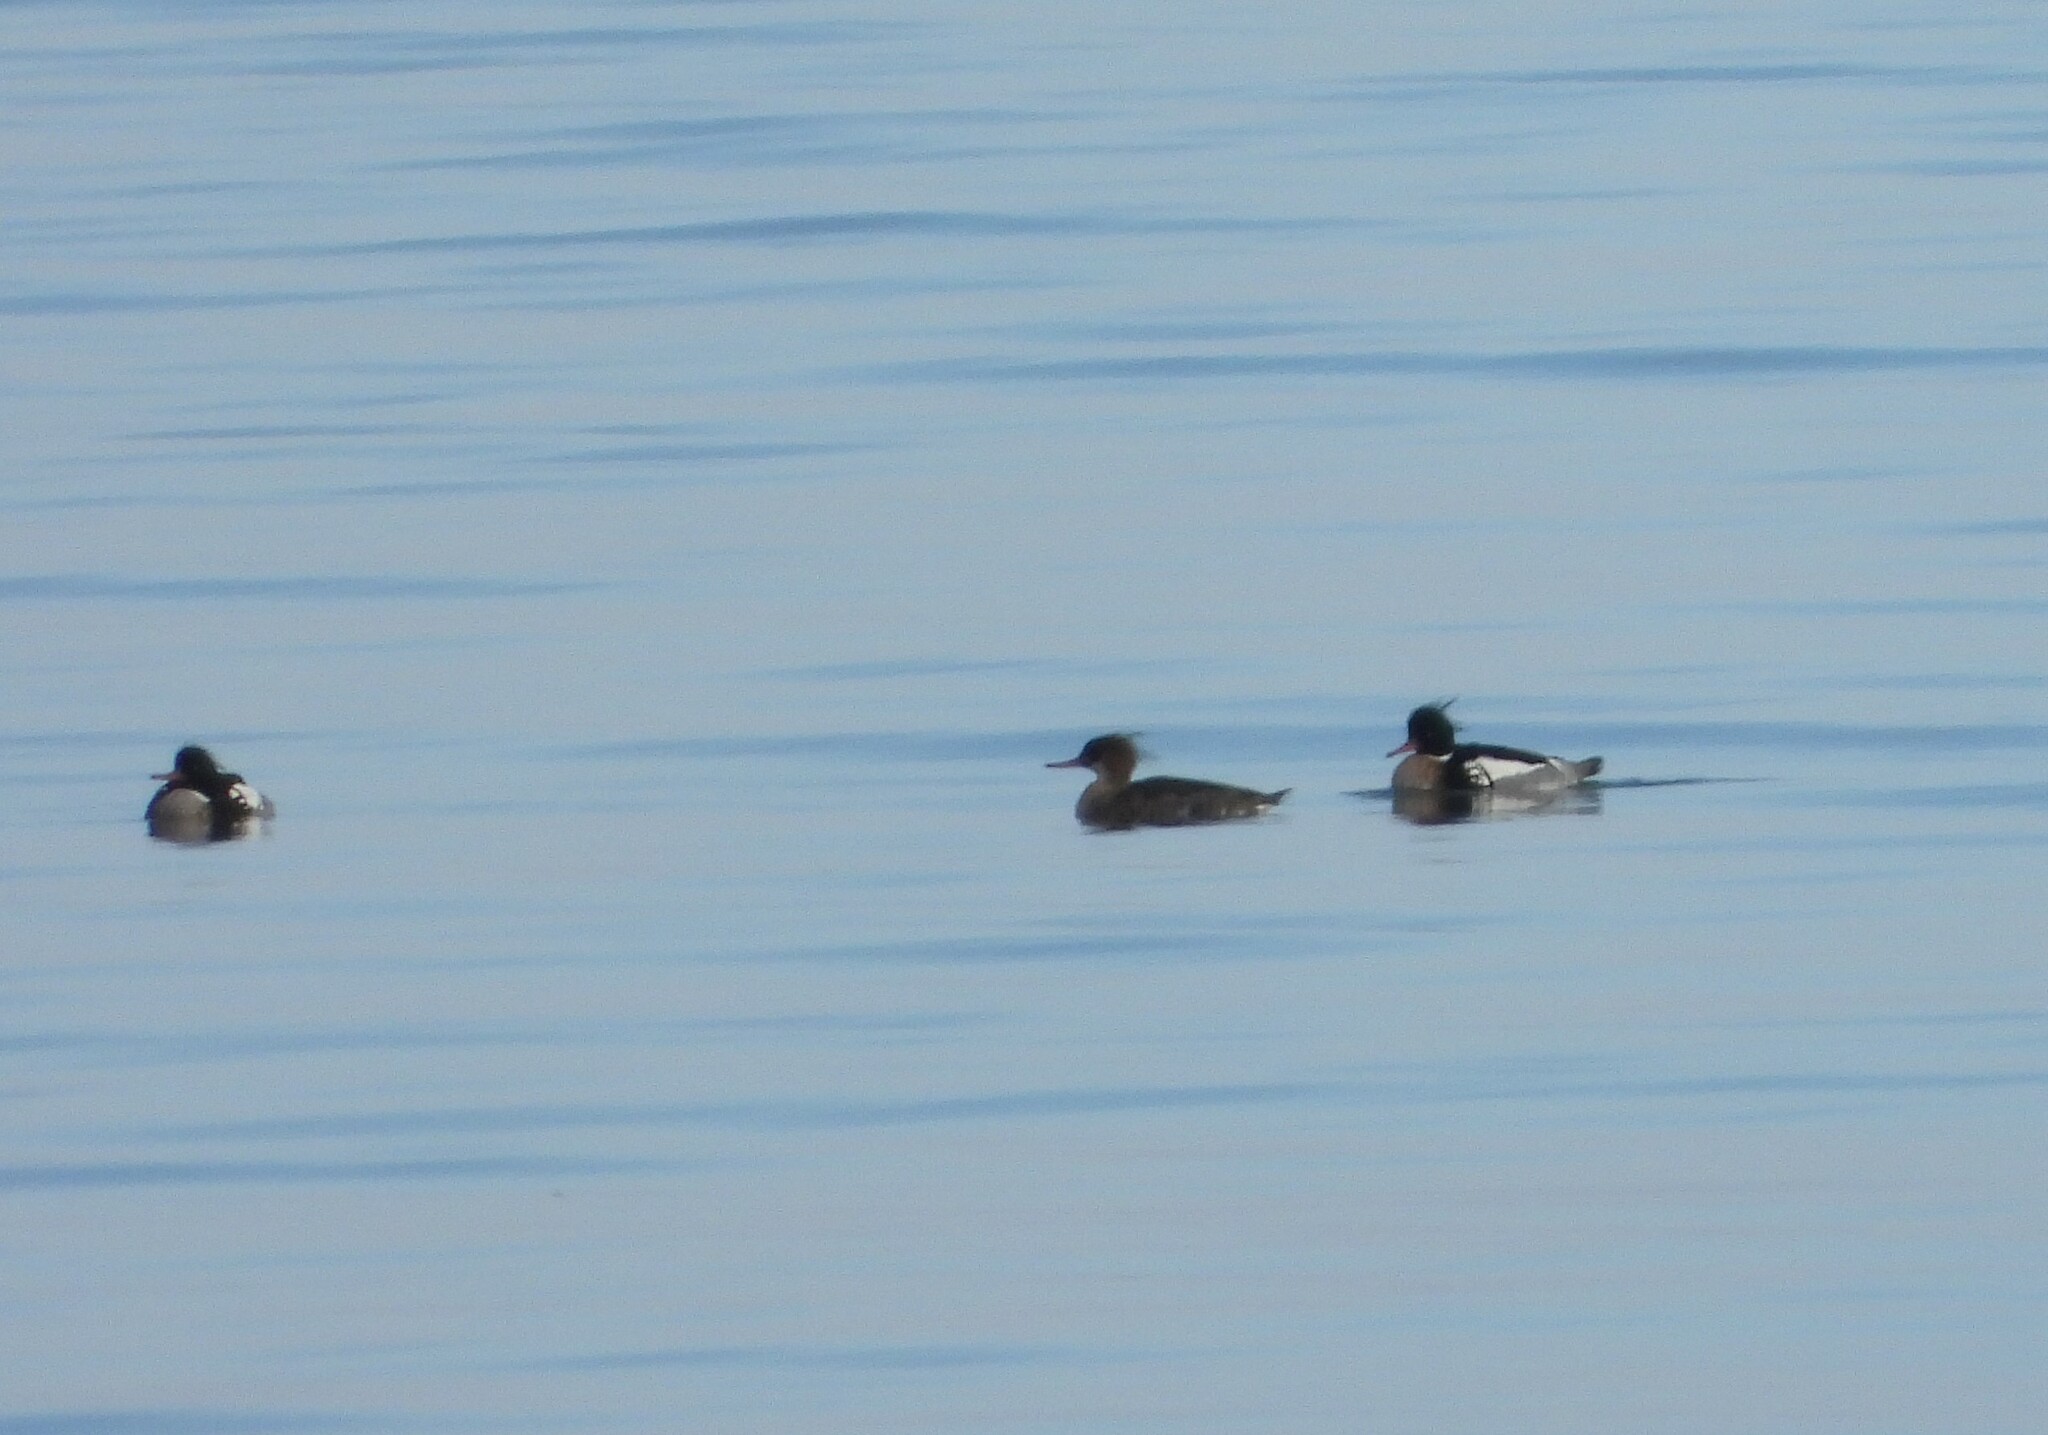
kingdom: Animalia
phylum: Chordata
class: Aves
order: Anseriformes
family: Anatidae
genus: Mergus
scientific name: Mergus serrator
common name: Red-breasted merganser
